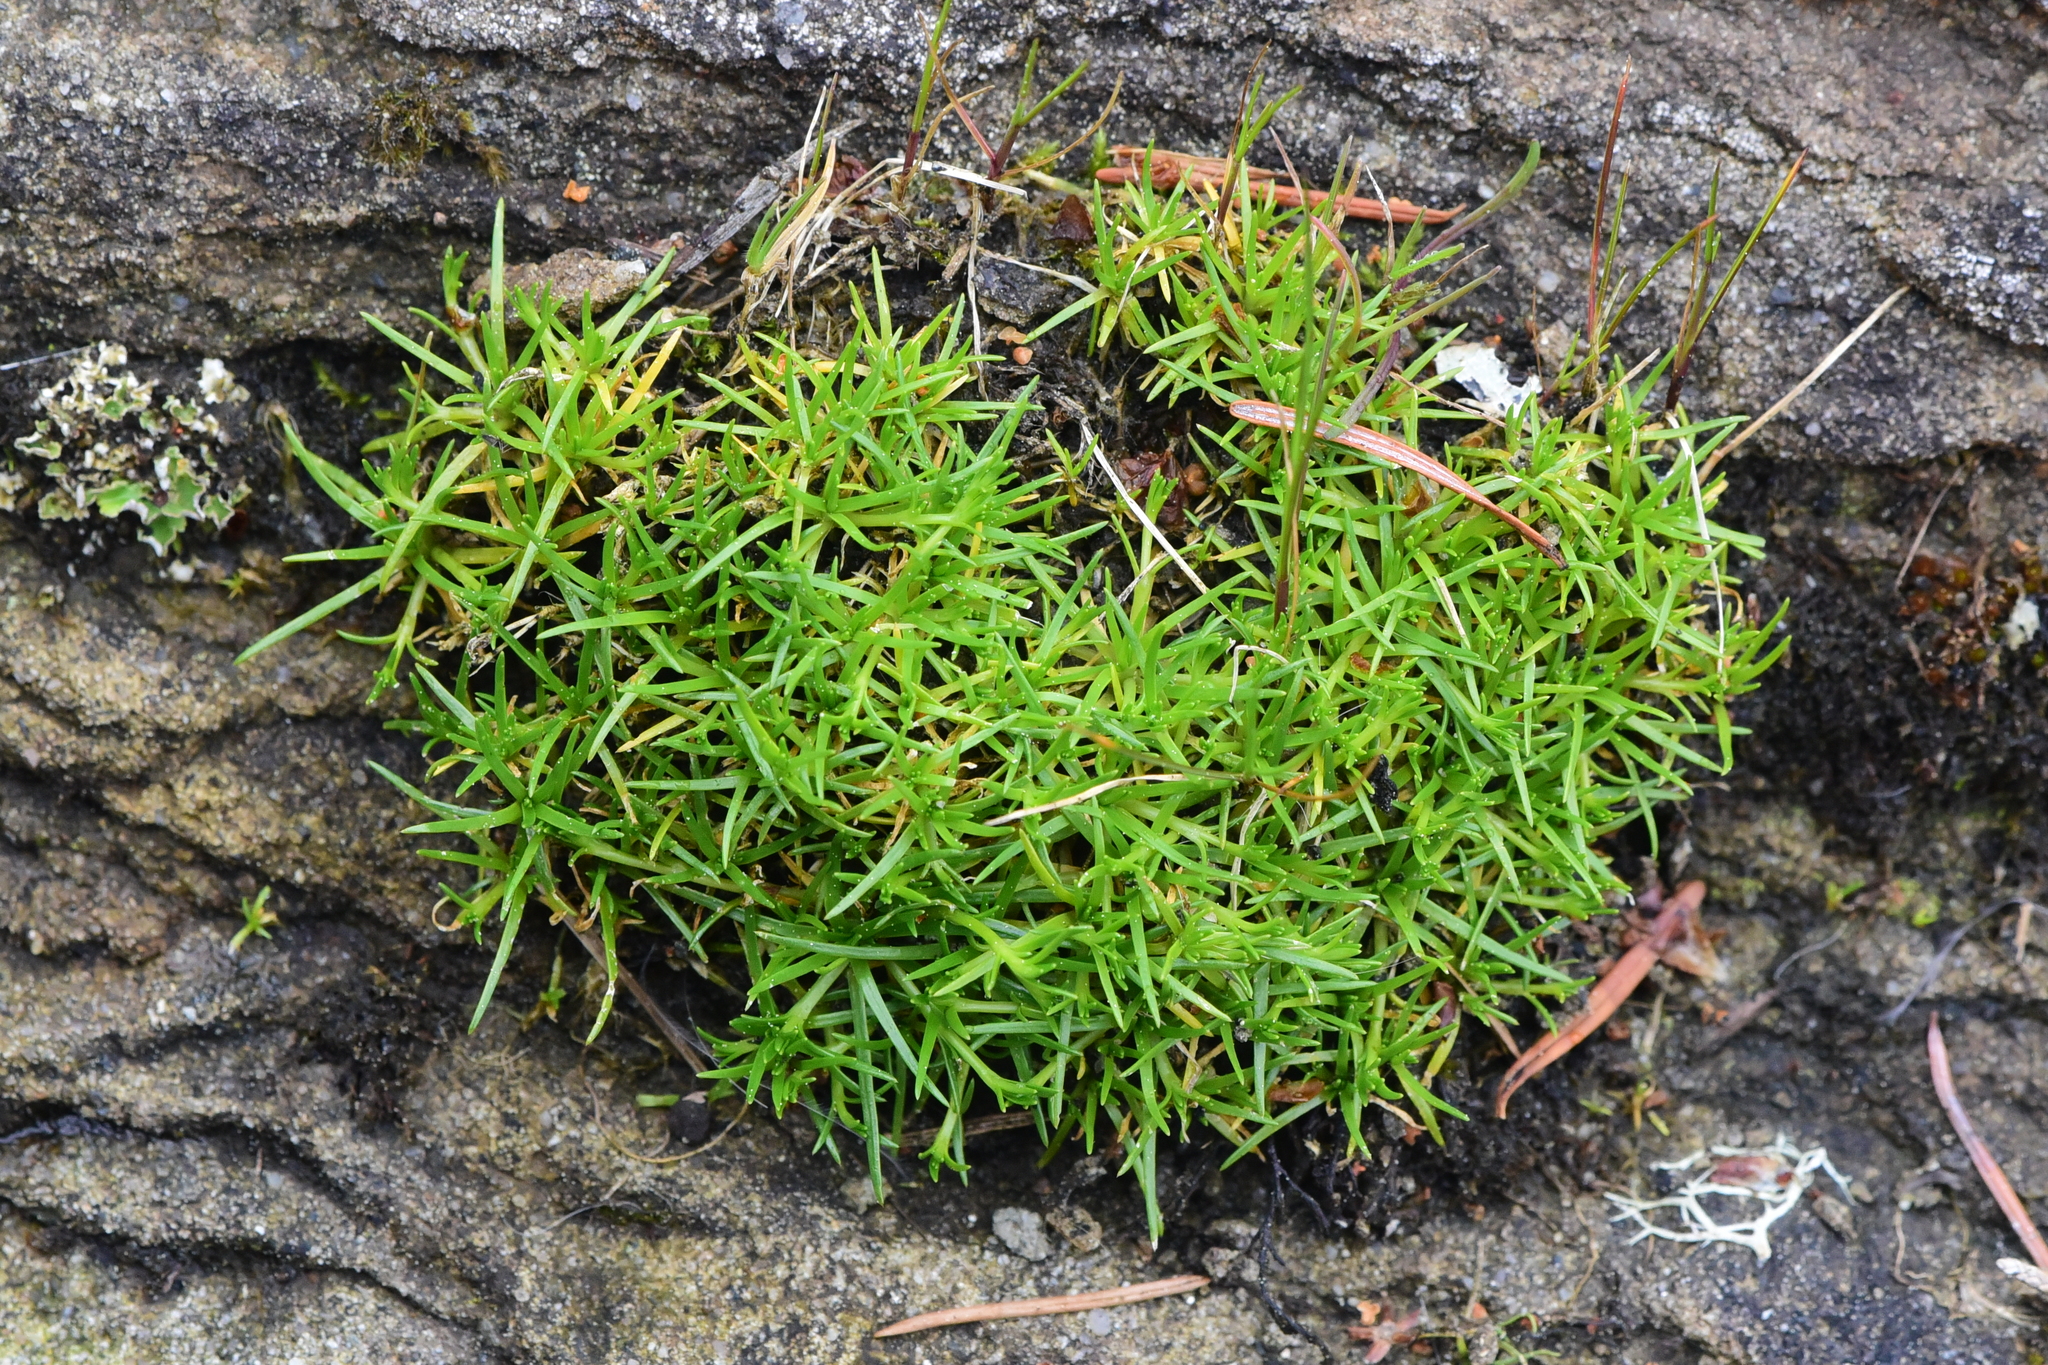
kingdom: Plantae
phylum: Tracheophyta
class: Magnoliopsida
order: Caryophyllales
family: Caryophyllaceae
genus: Sagina
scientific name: Sagina procumbens
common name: Procumbent pearlwort
